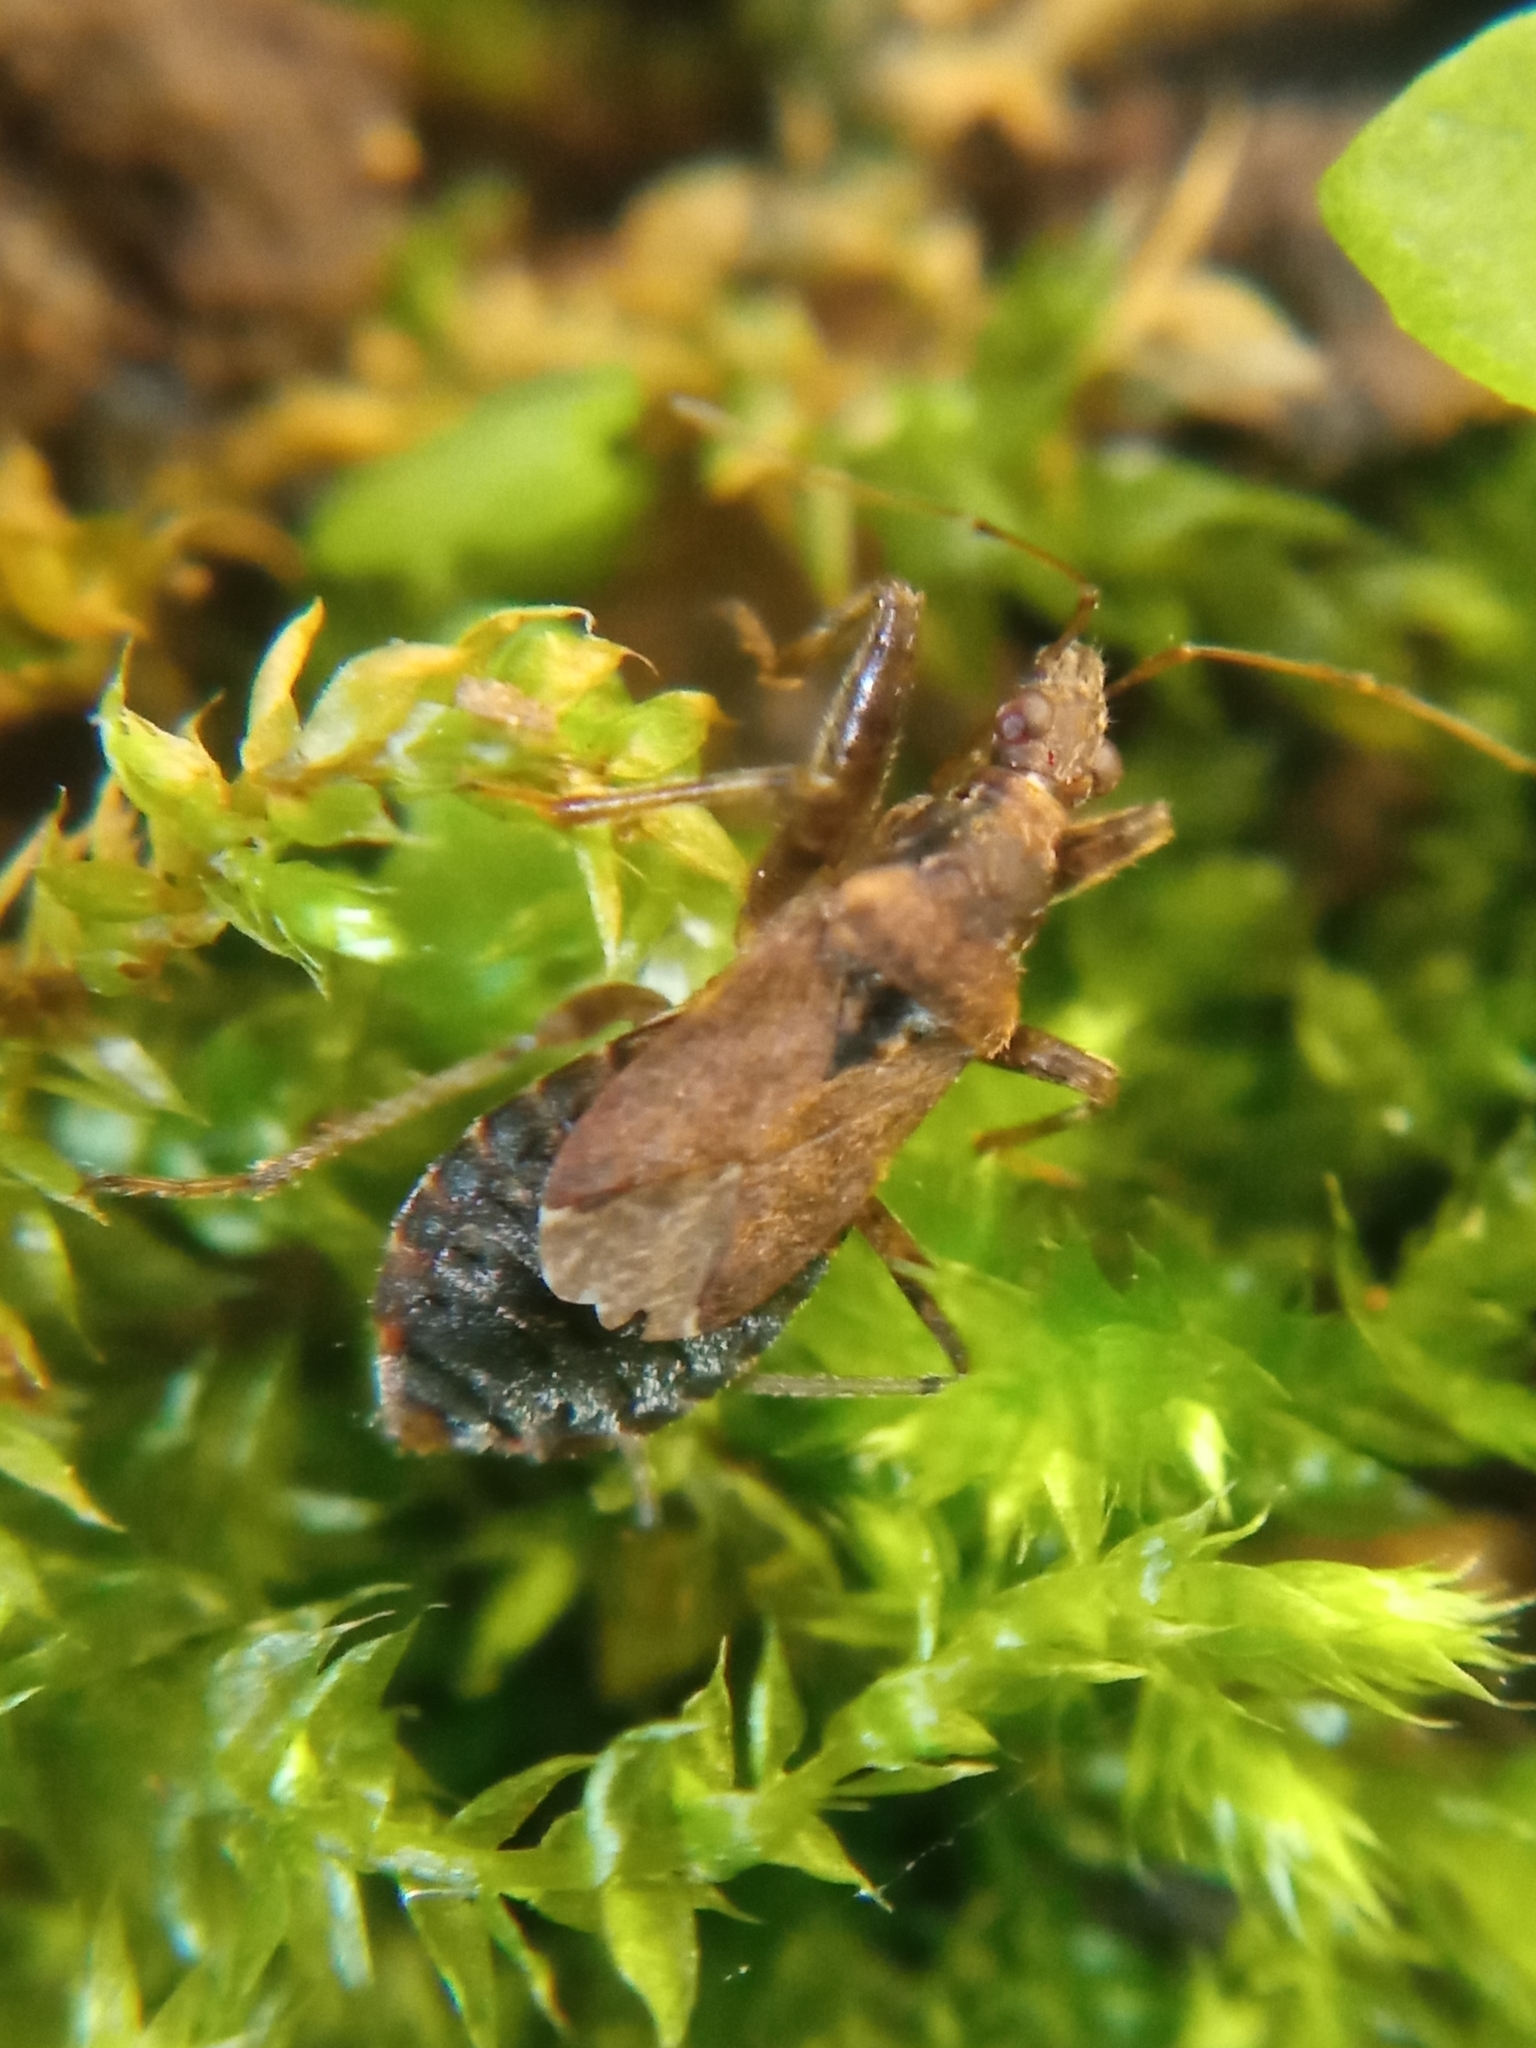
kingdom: Animalia
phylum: Arthropoda
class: Insecta
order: Hemiptera
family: Nabidae
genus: Himacerus
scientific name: Himacerus mirmicoides
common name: Ant damsel bug
